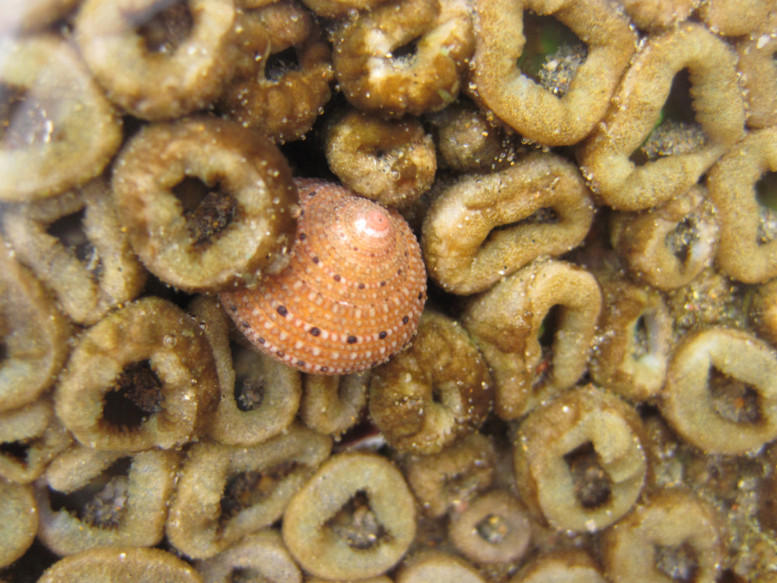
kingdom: Animalia
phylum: Mollusca
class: Gastropoda
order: Trochida
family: Trochidae
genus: Clanculus
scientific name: Clanculus puniceus
